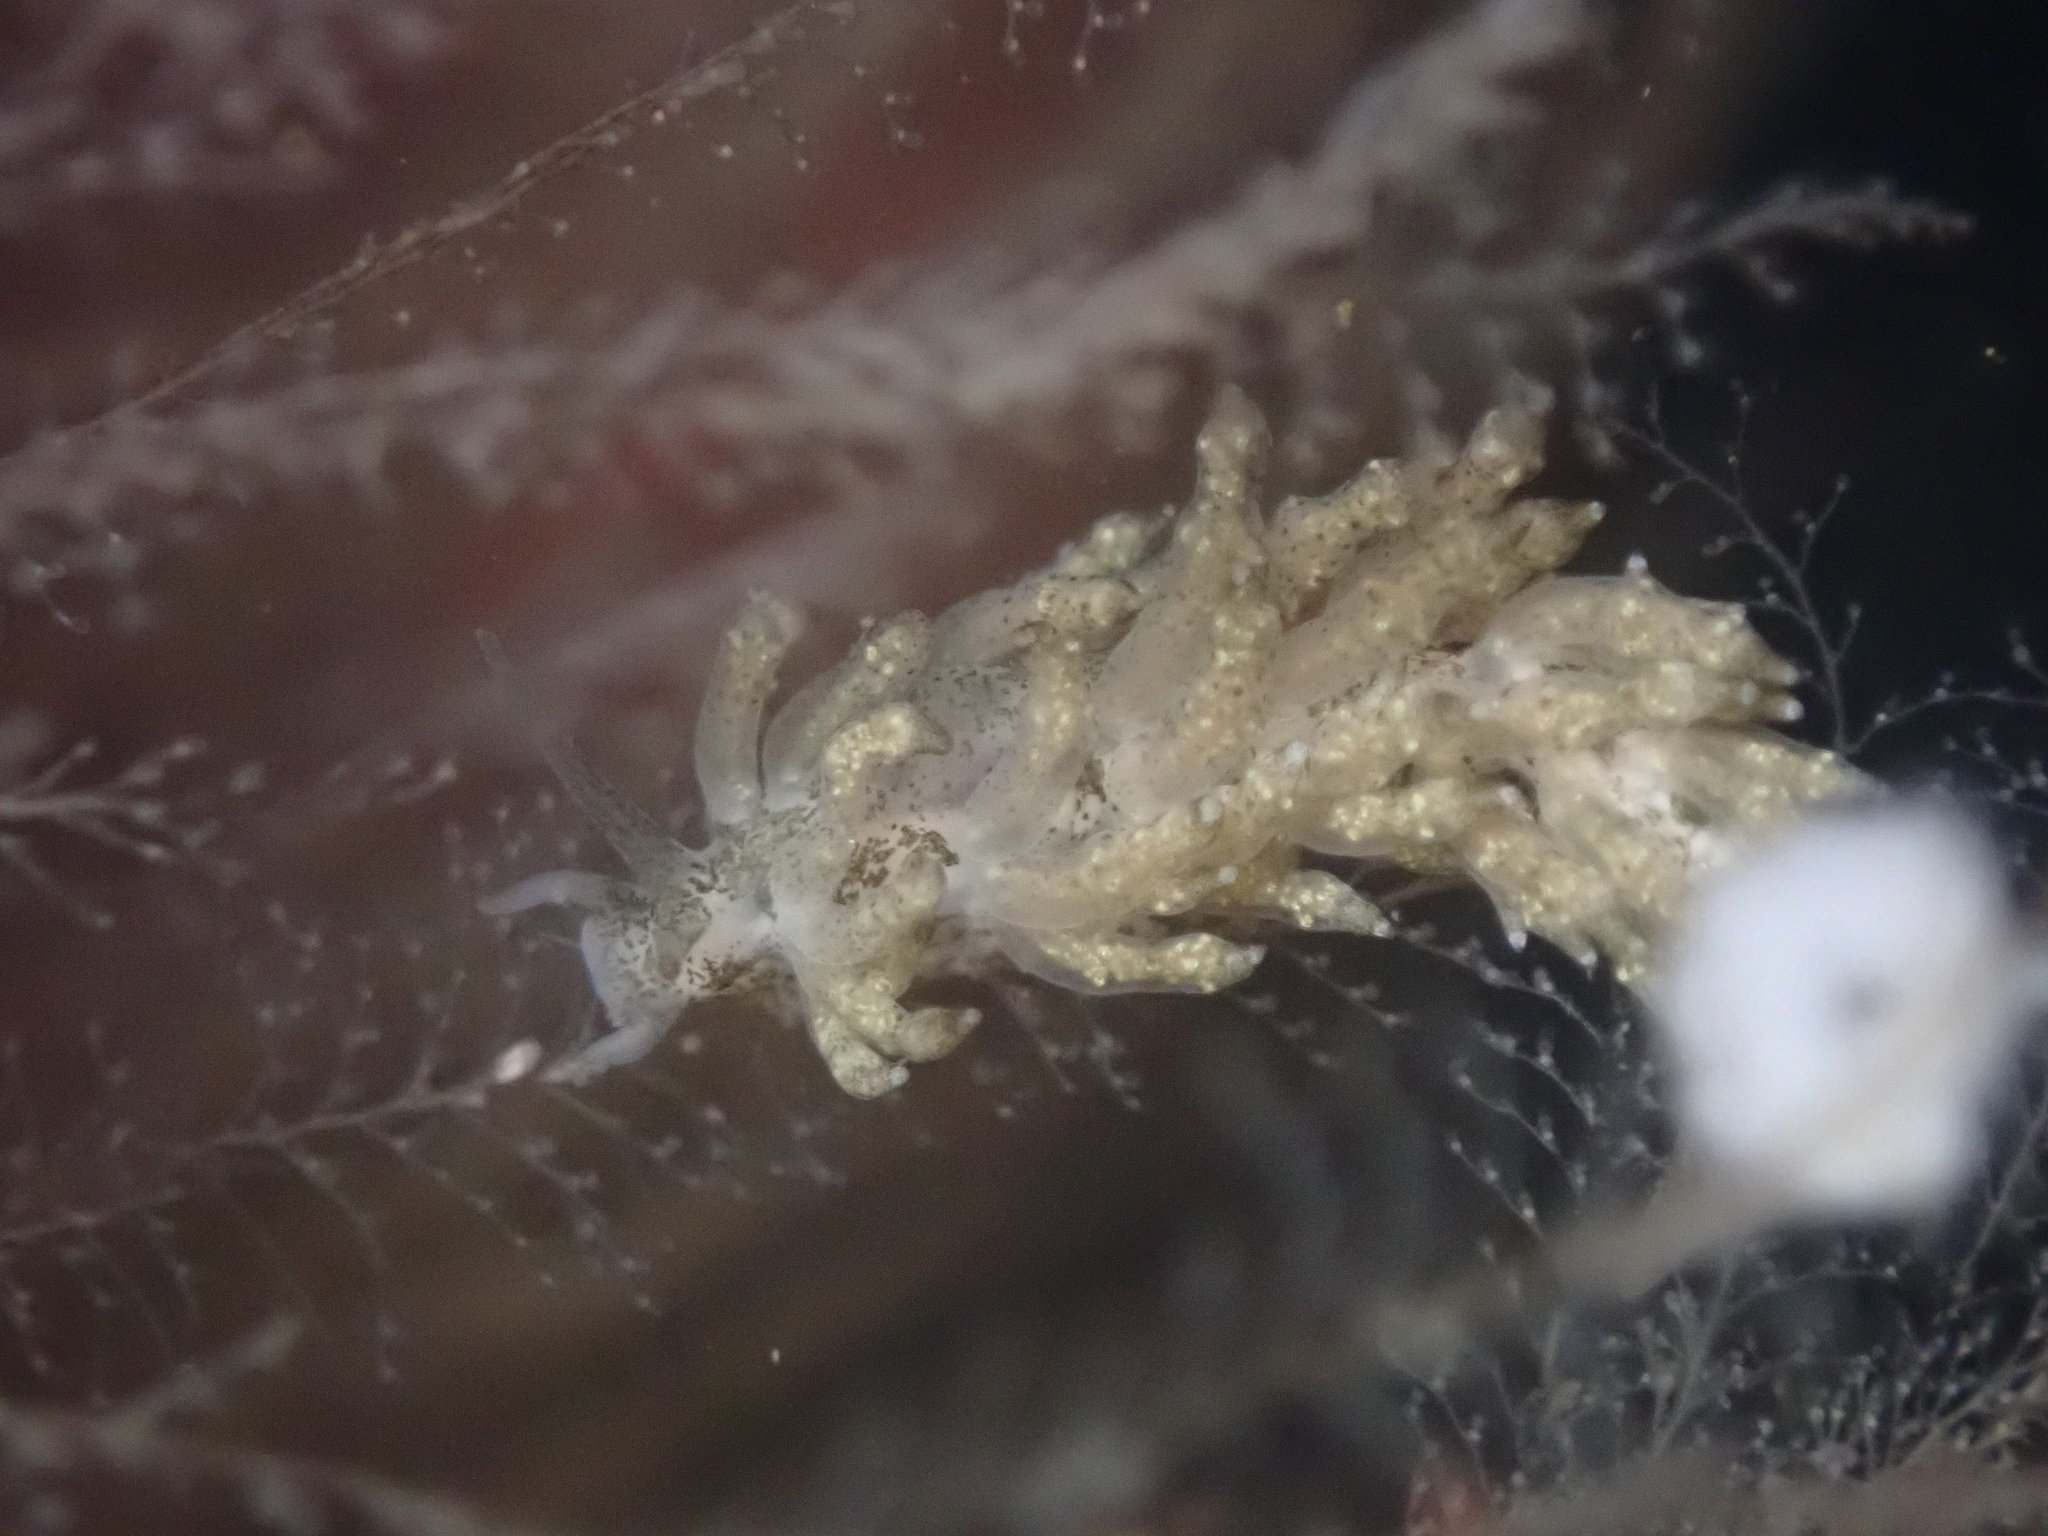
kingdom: Animalia
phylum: Mollusca
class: Gastropoda
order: Nudibranchia
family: Eubranchidae
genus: Eubranchus
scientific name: Eubranchus rustyus
